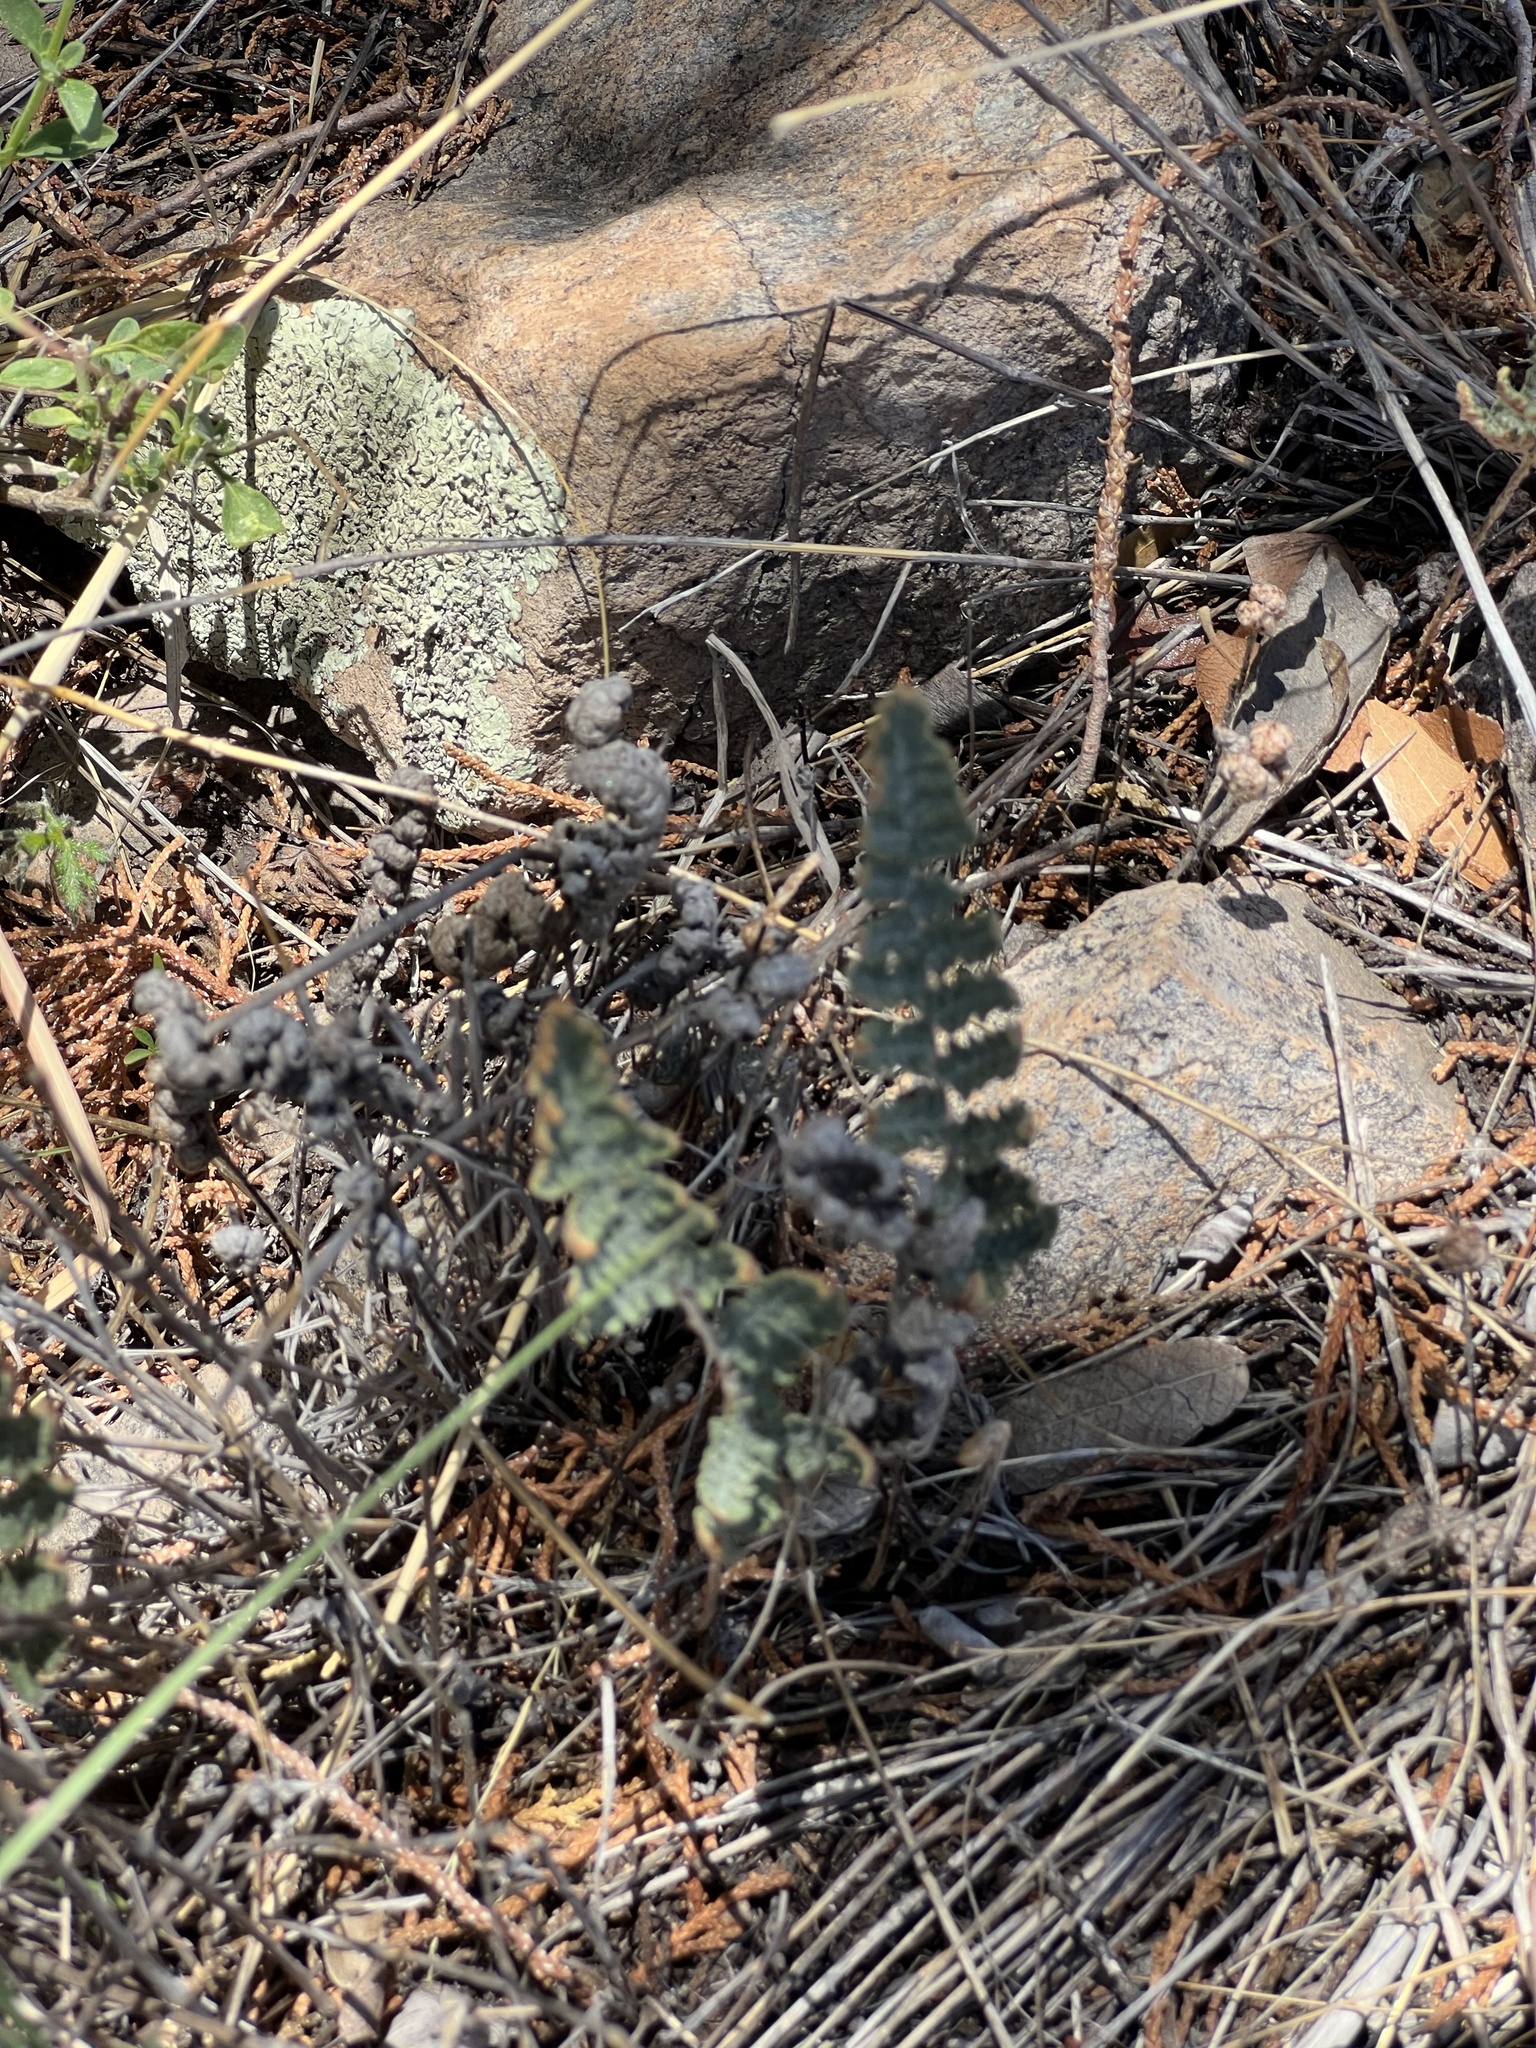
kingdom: Plantae
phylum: Tracheophyta
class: Polypodiopsida
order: Polypodiales
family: Pteridaceae
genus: Myriopteris
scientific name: Myriopteris lindheimeri
